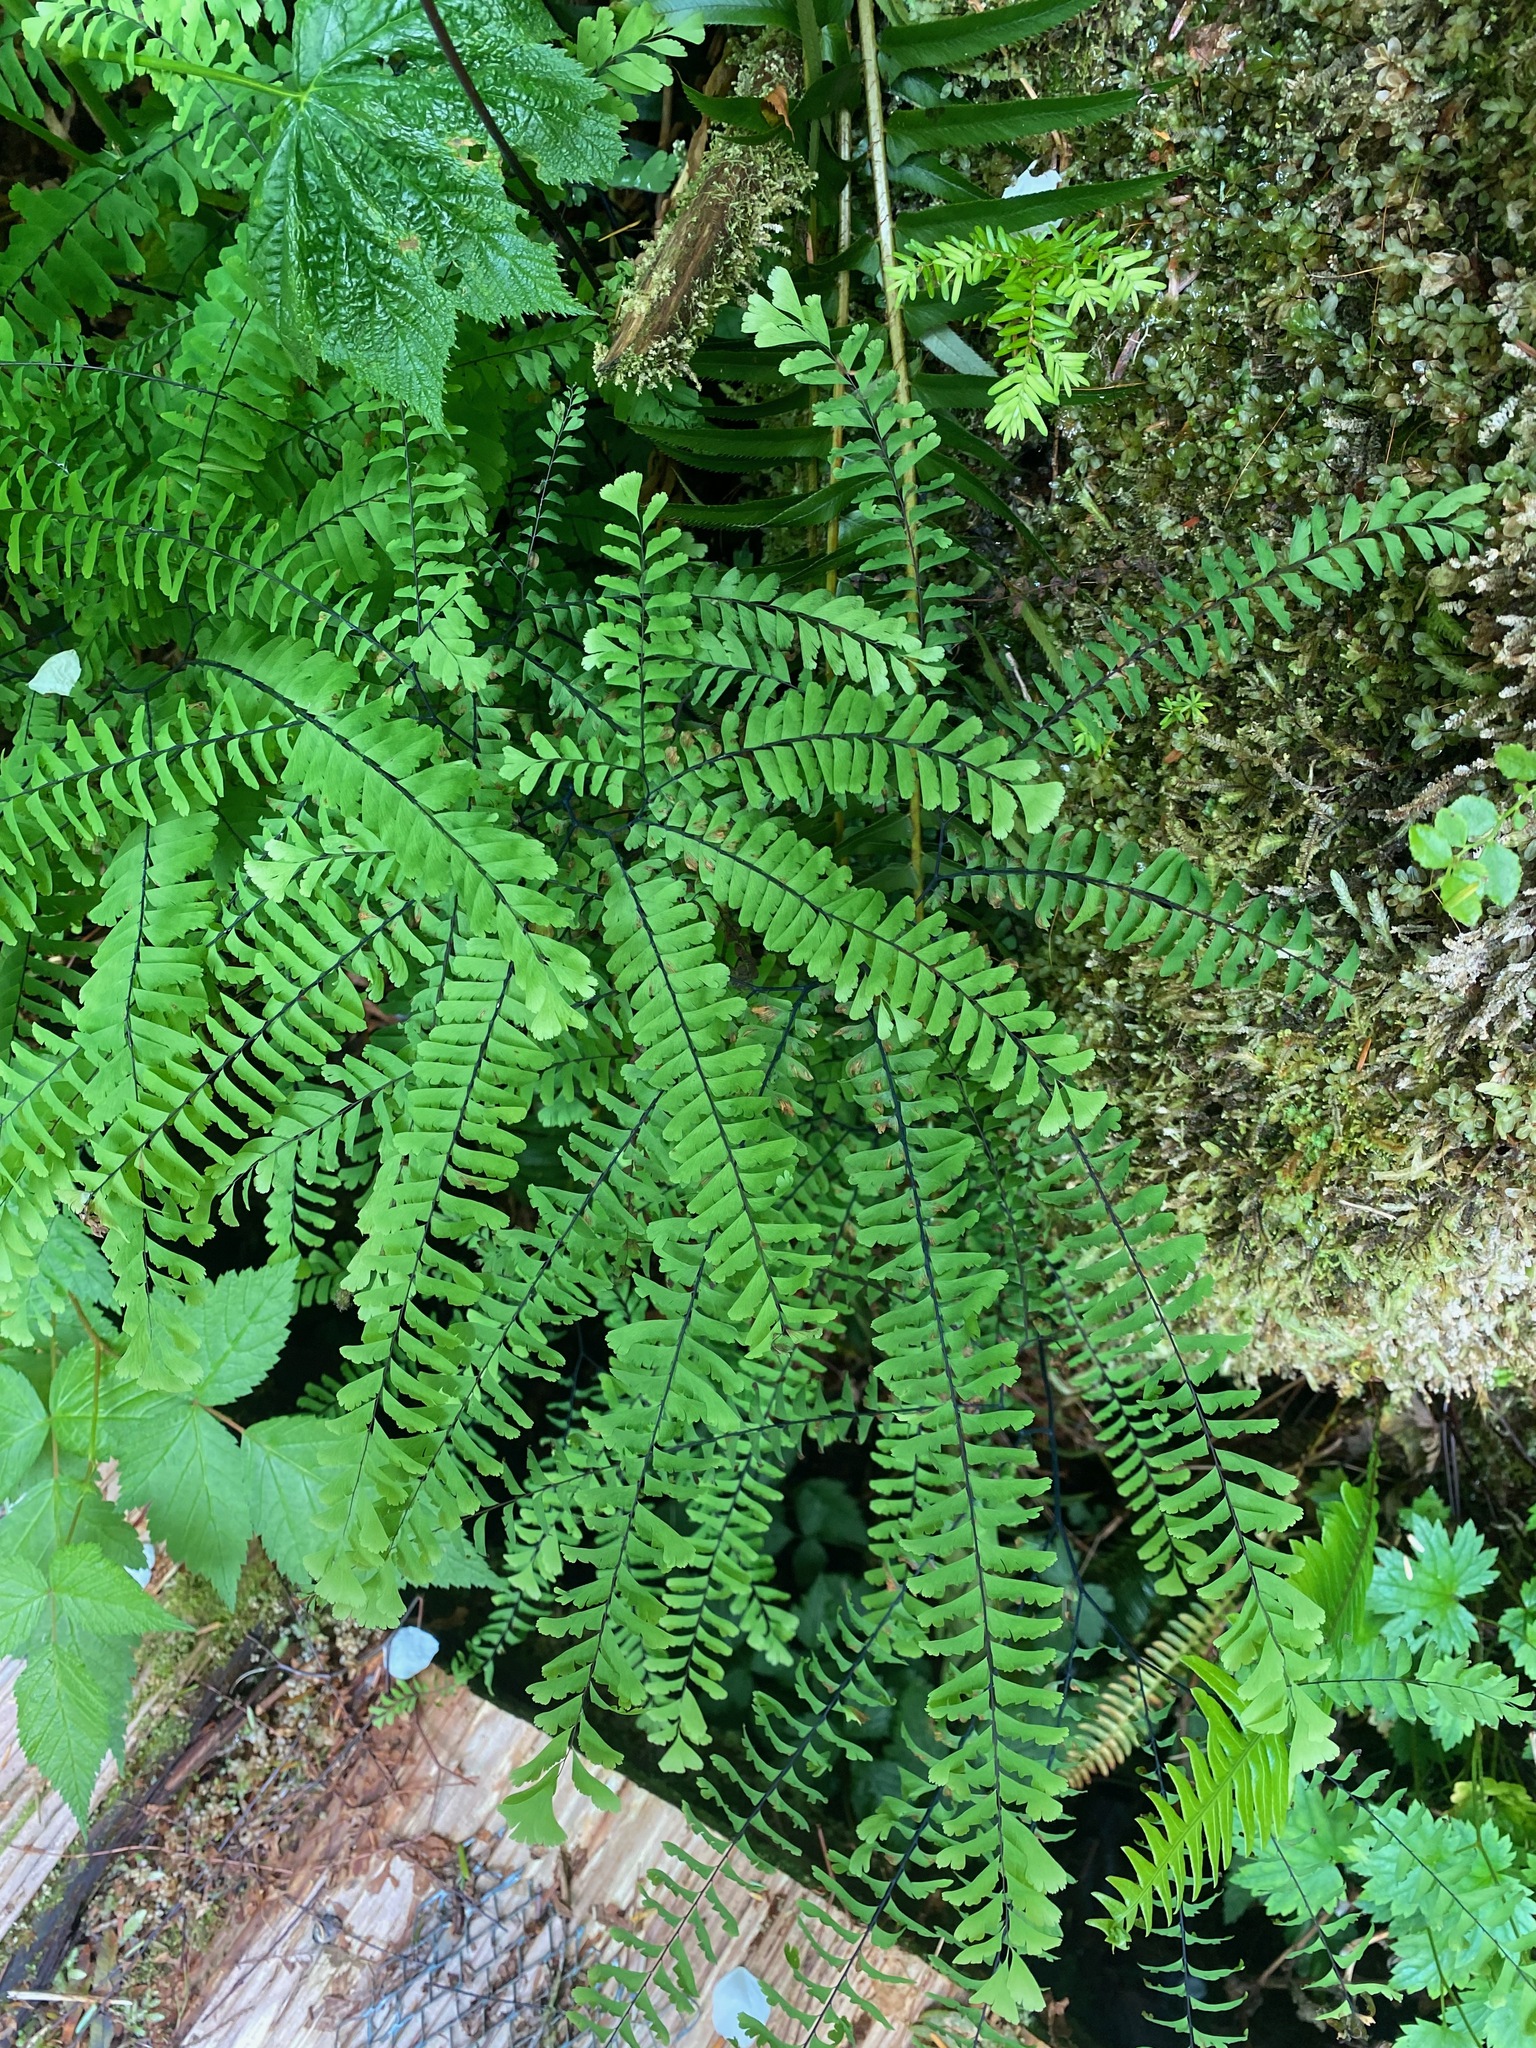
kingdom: Plantae
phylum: Tracheophyta
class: Polypodiopsida
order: Polypodiales
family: Pteridaceae
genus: Adiantum
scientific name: Adiantum aleuticum
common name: Aleutian maidenhair fern
